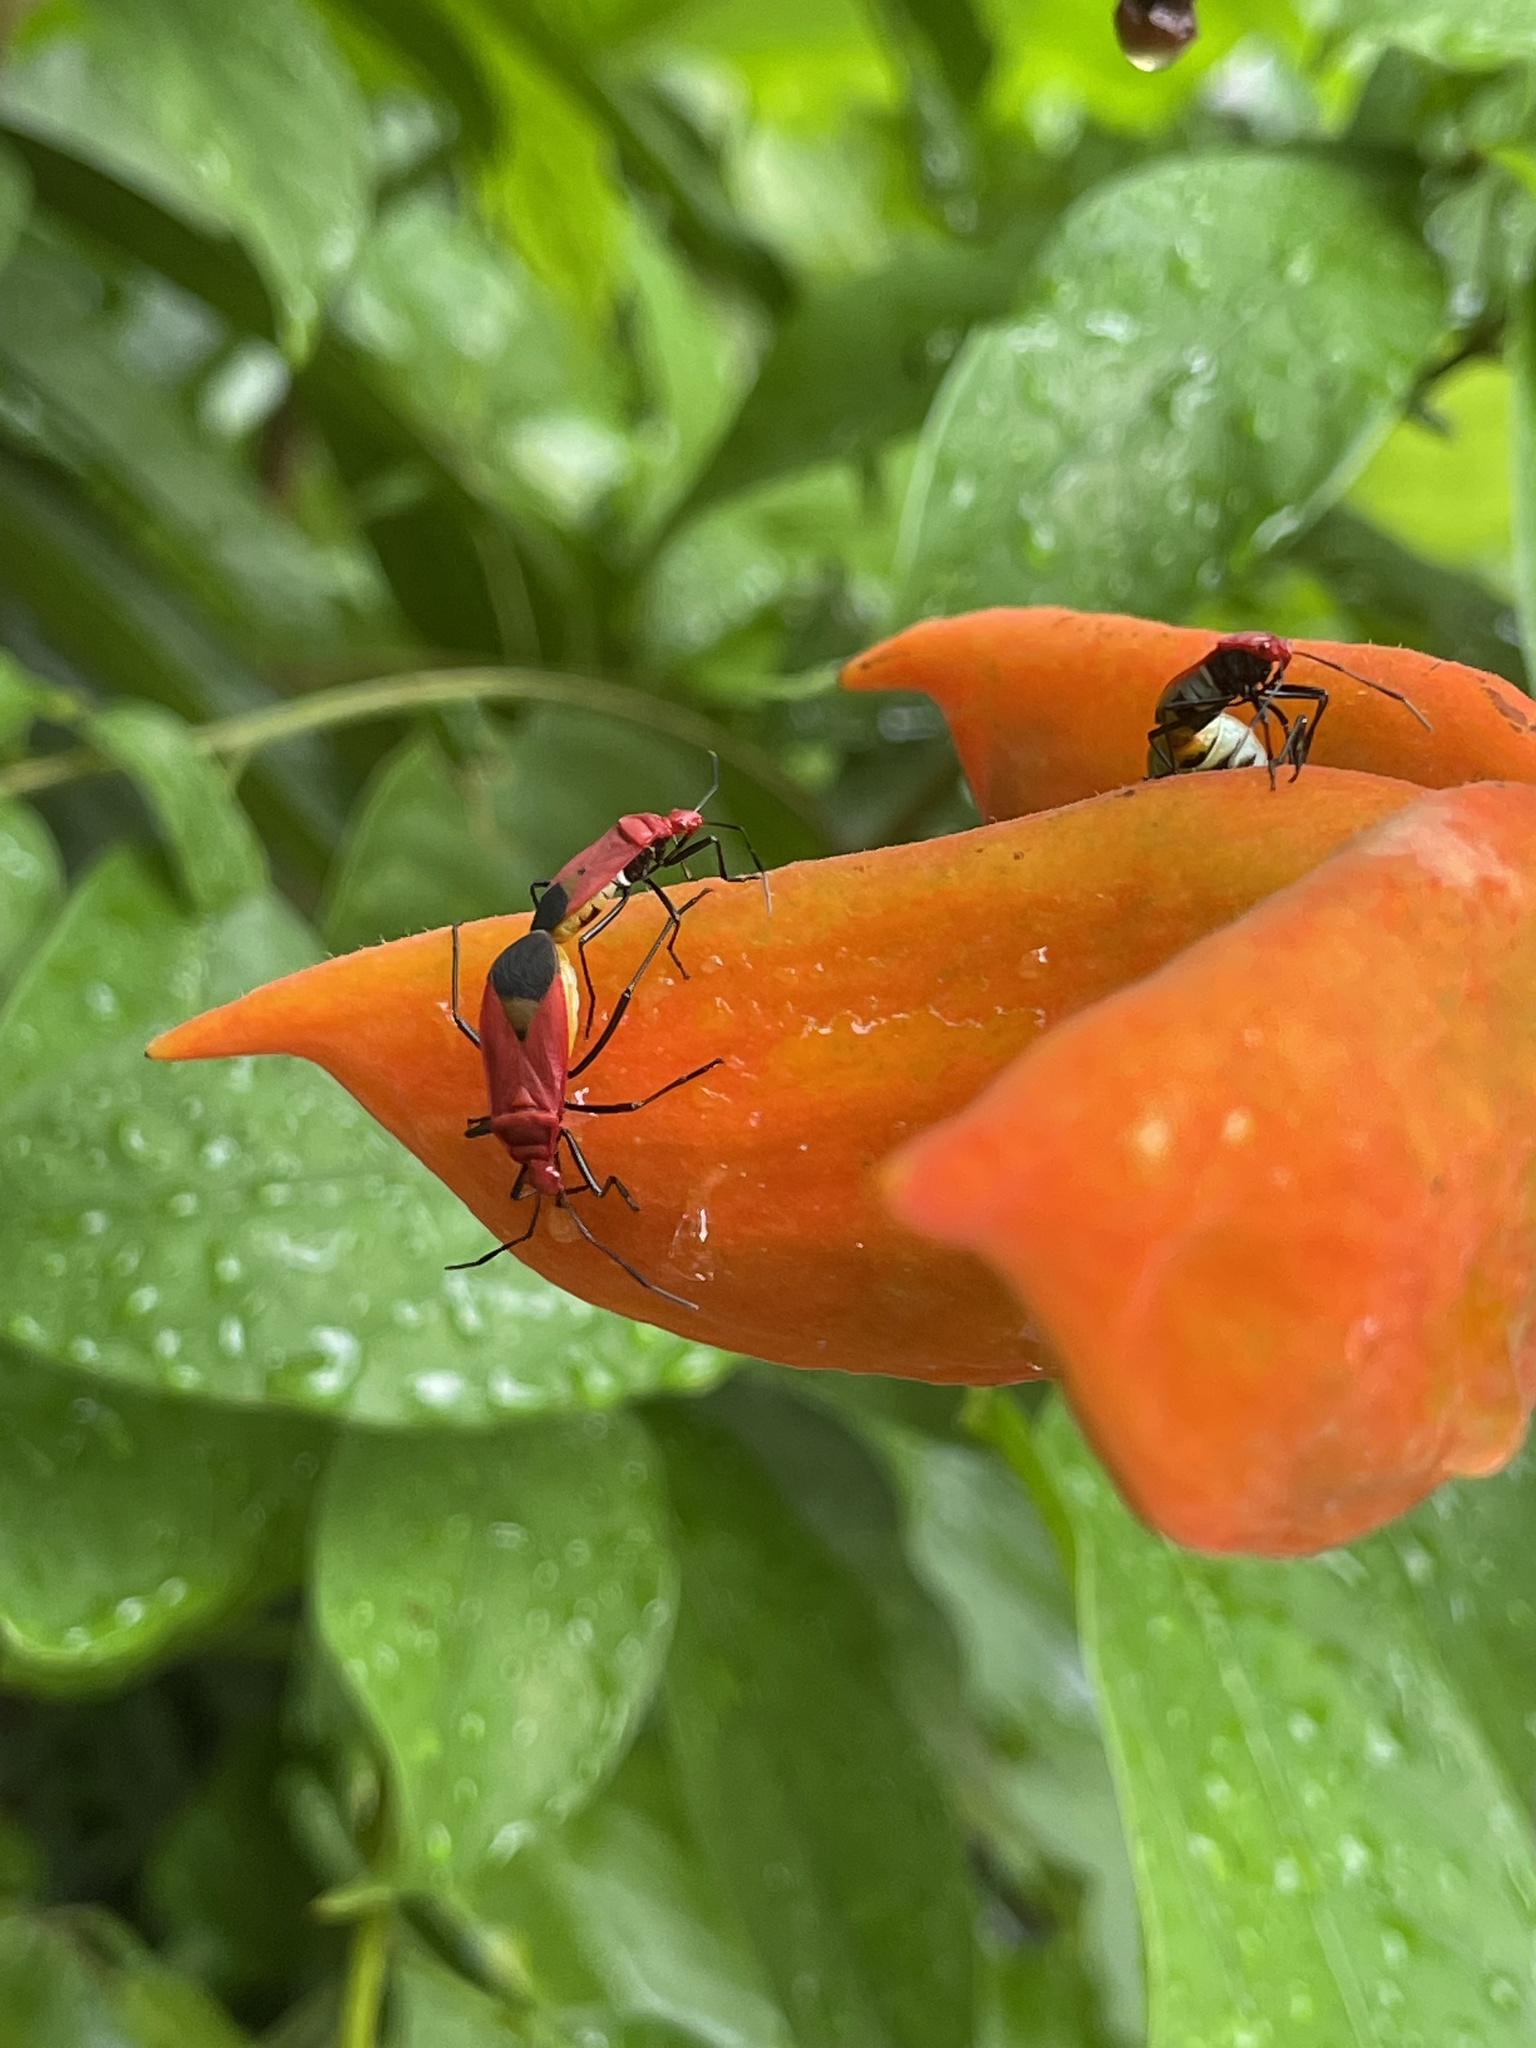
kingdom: Animalia
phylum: Arthropoda
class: Insecta
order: Hemiptera
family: Pyrrhocoridae
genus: Dindymus
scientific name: Dindymus
